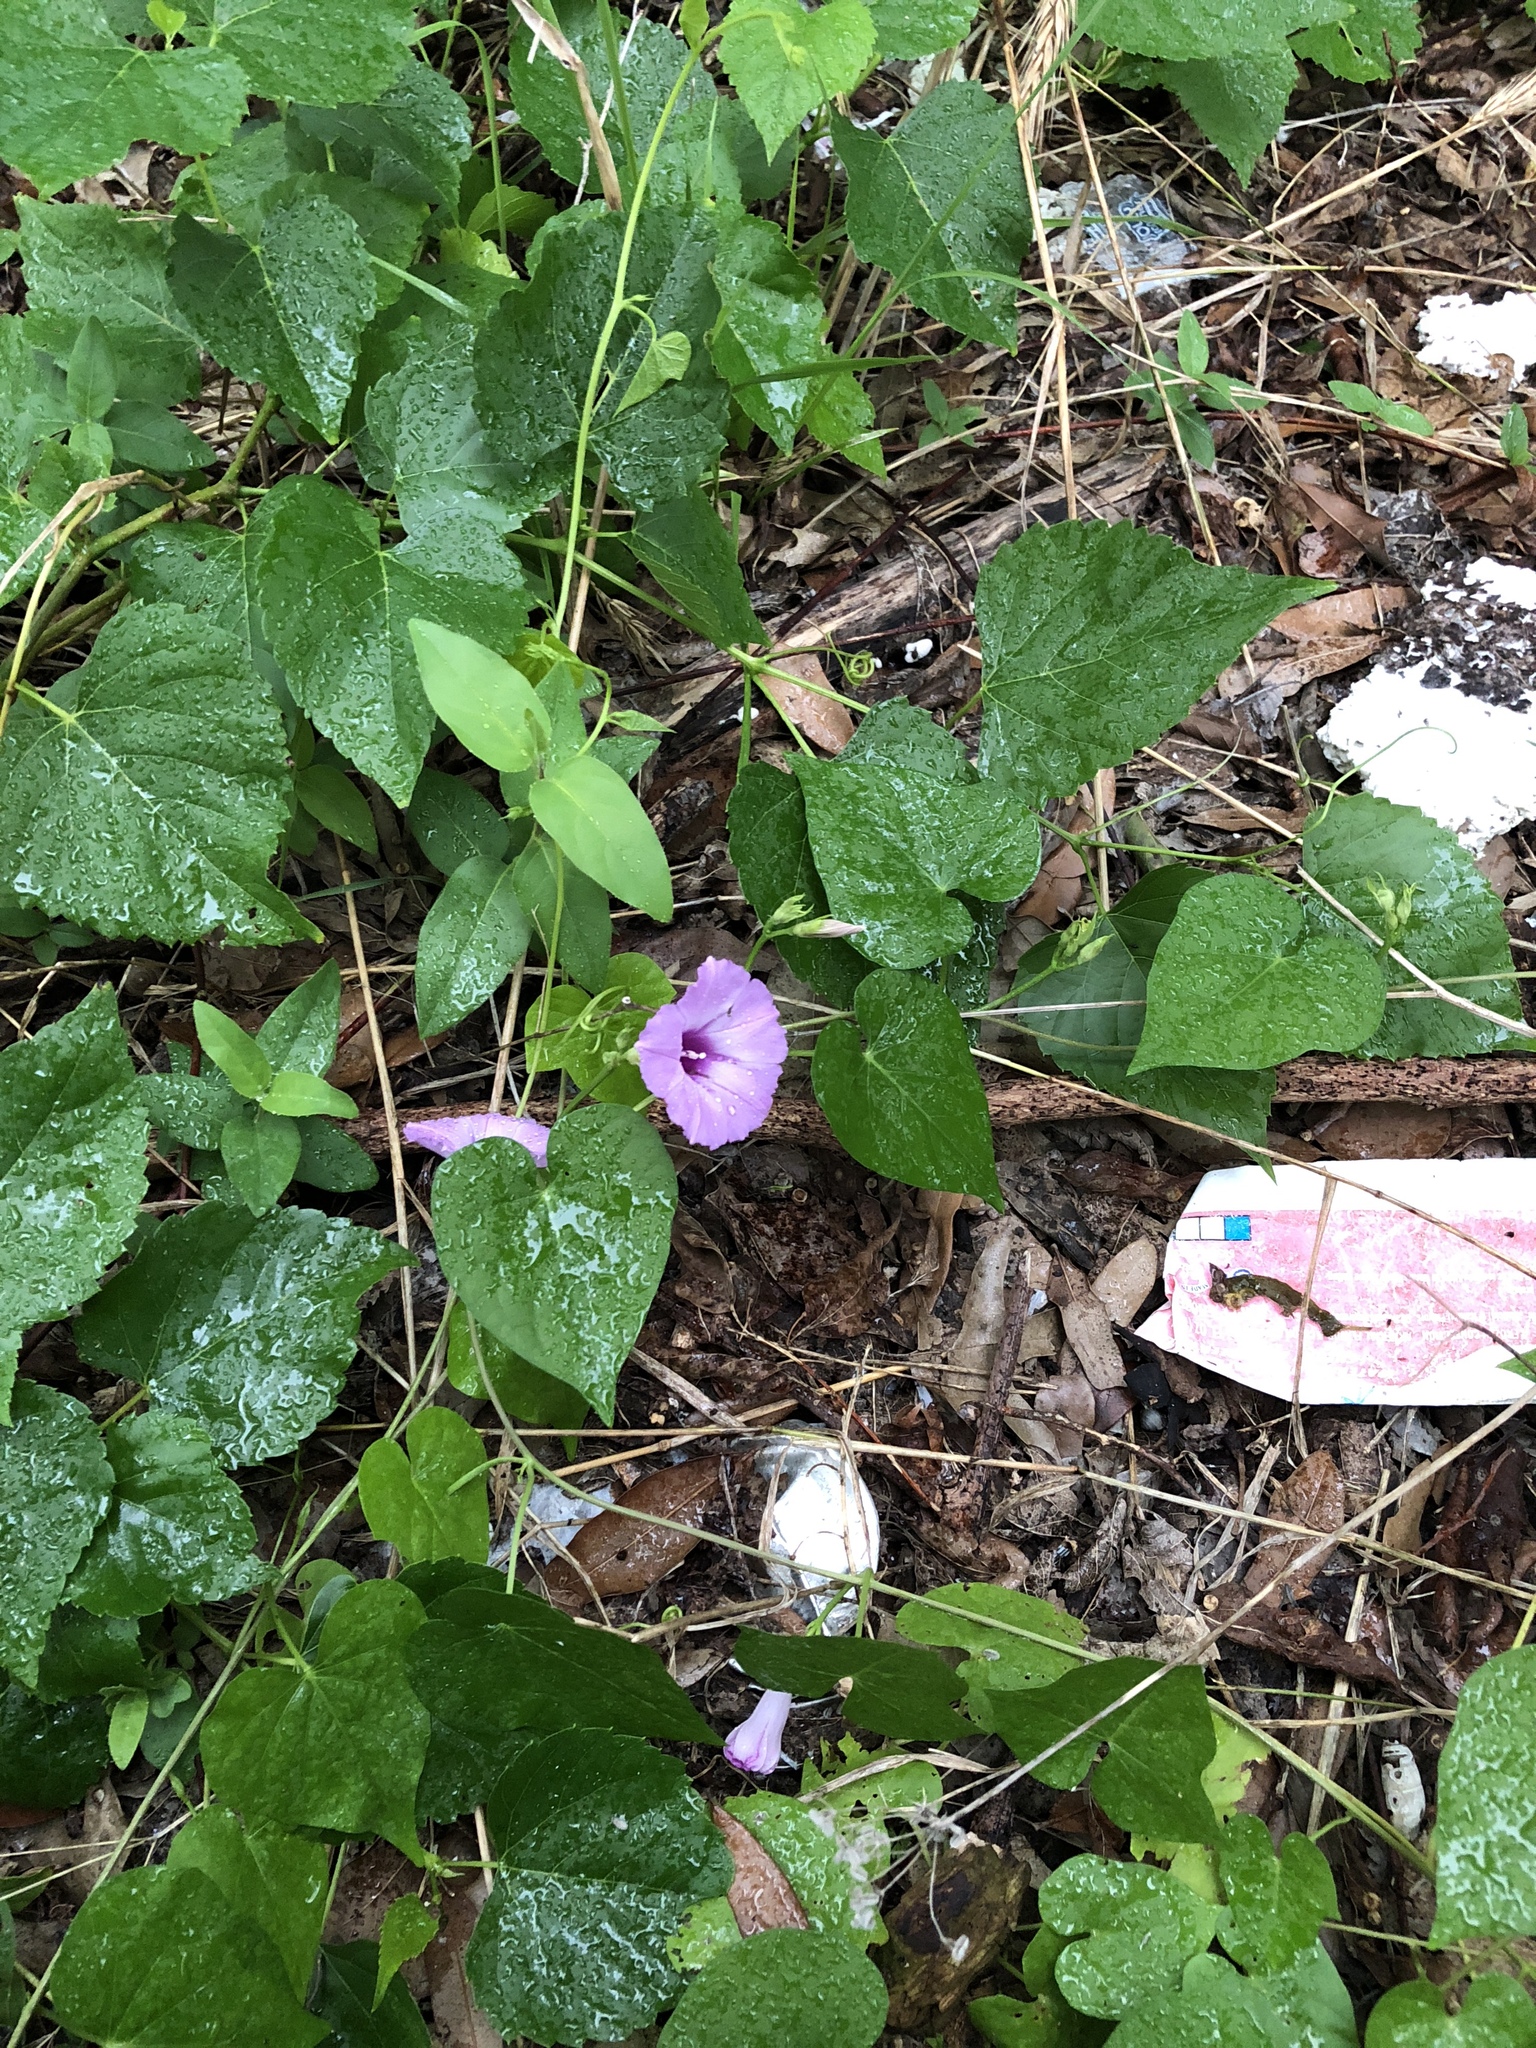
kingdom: Plantae
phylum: Tracheophyta
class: Magnoliopsida
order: Solanales
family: Convolvulaceae
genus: Ipomoea
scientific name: Ipomoea cordatotriloba
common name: Cotton morning glory
